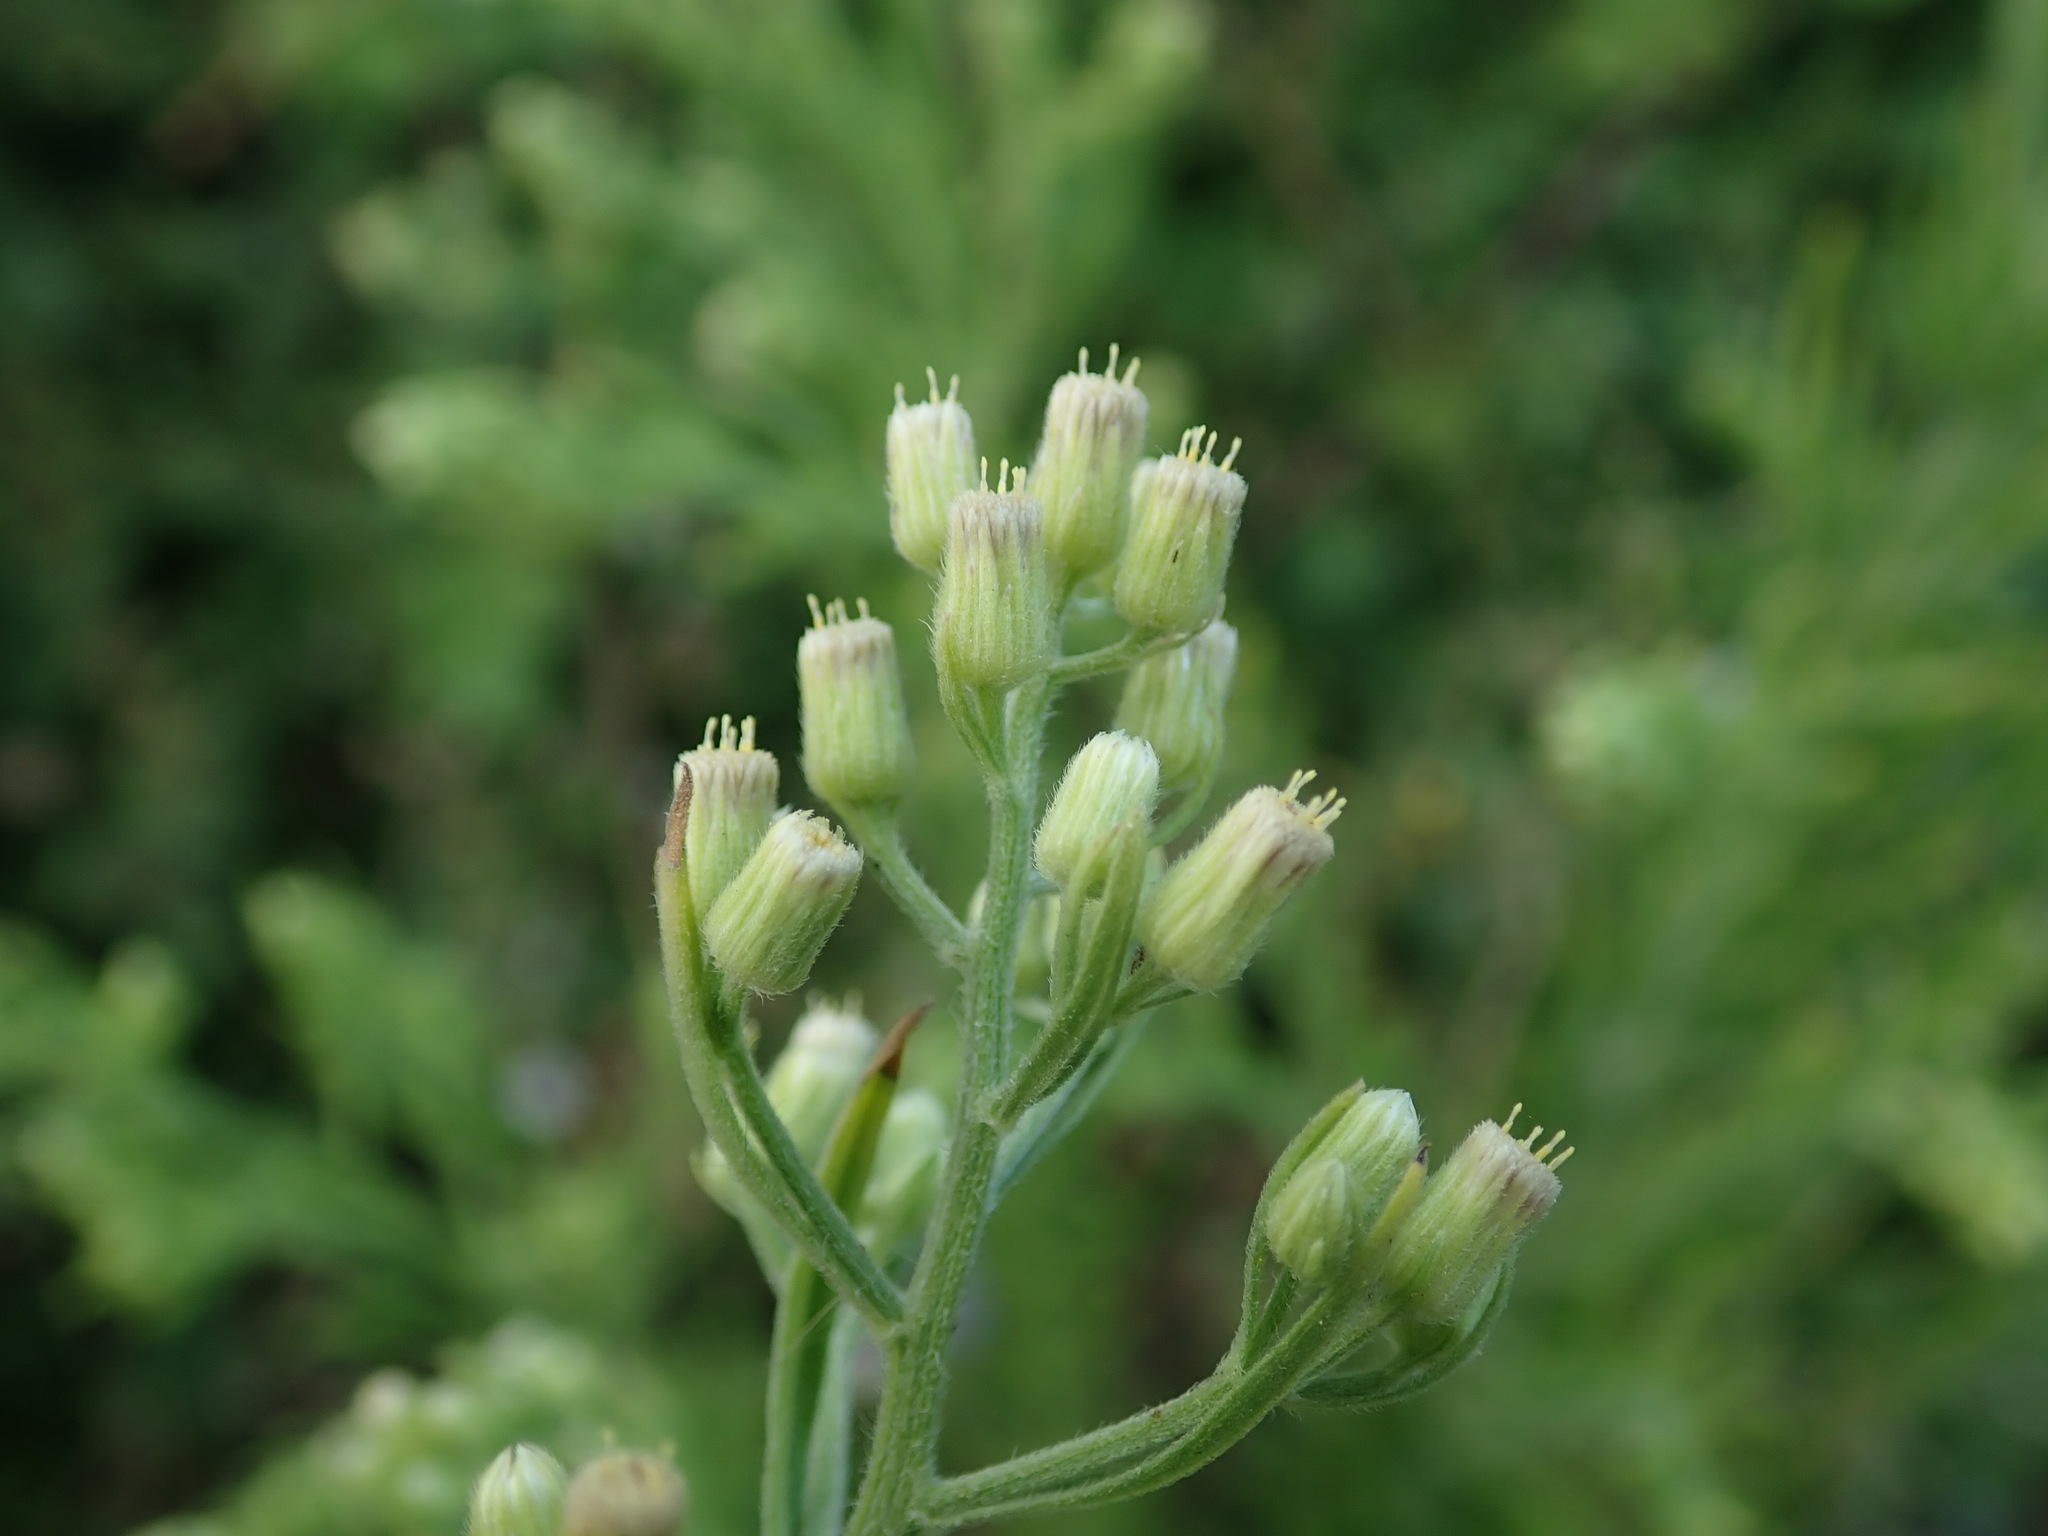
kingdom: Plantae
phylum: Tracheophyta
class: Magnoliopsida
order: Asterales
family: Asteraceae
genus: Erigeron
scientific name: Erigeron sumatrensis
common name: Daisy
